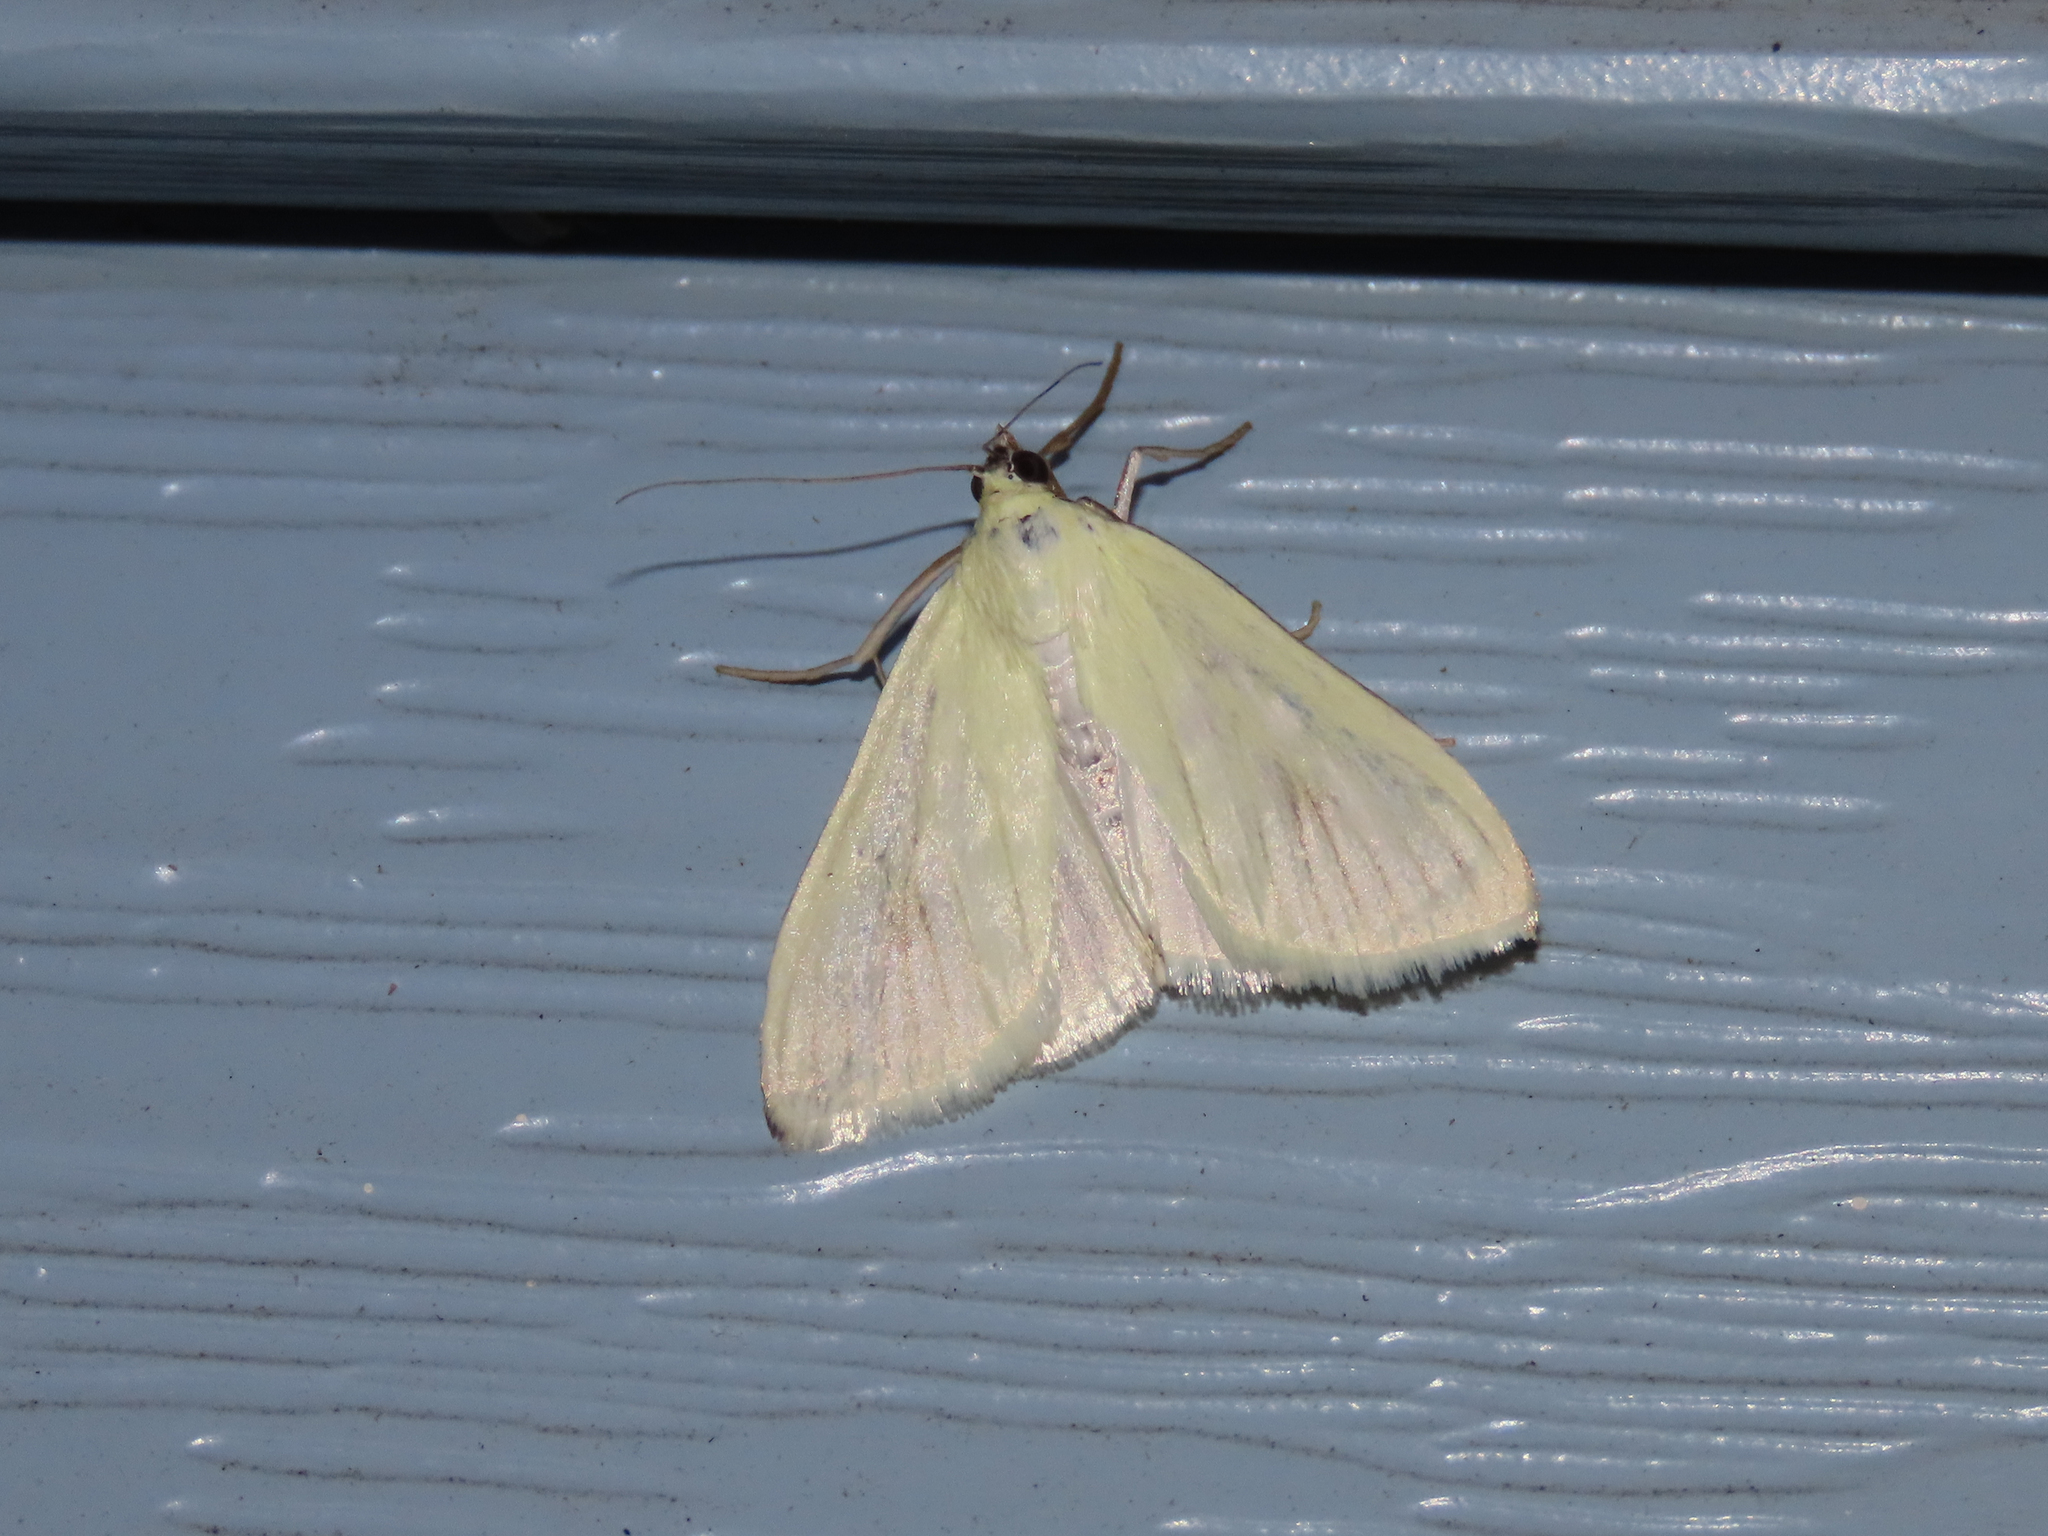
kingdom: Animalia
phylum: Arthropoda
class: Insecta
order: Lepidoptera
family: Crambidae
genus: Sitochroa
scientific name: Sitochroa palealis
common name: Greenish-yellow sitochroa moth
